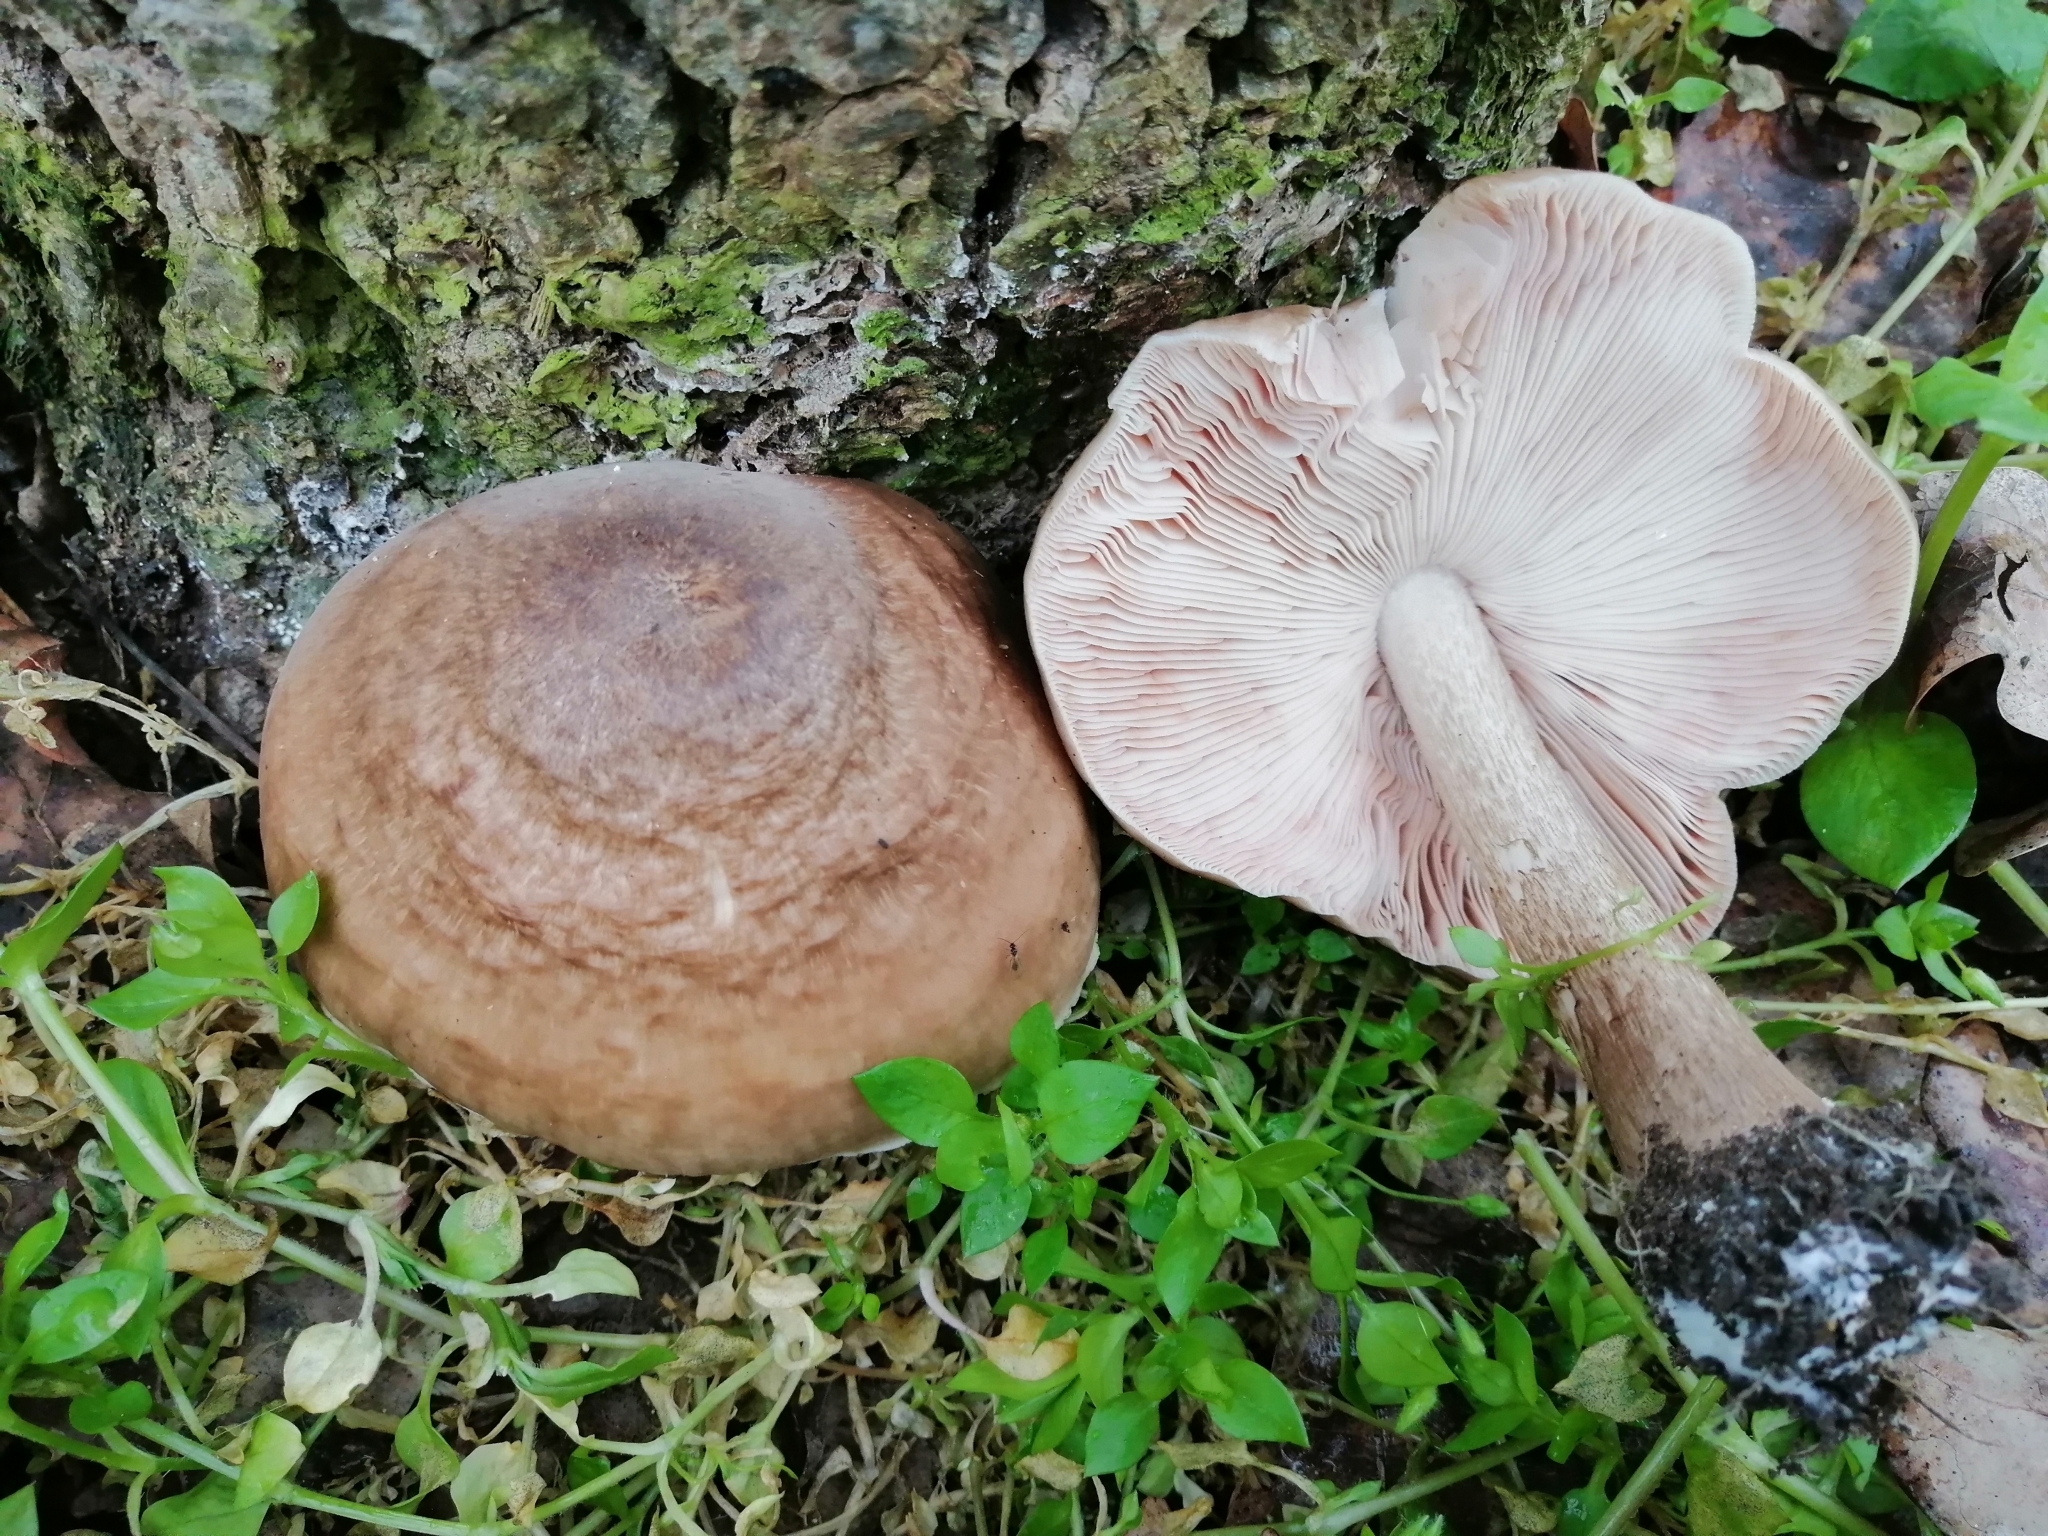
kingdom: Fungi
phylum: Basidiomycota
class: Agaricomycetes
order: Agaricales
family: Pluteaceae
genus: Pluteus
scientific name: Pluteus cervinus
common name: Deer shield
